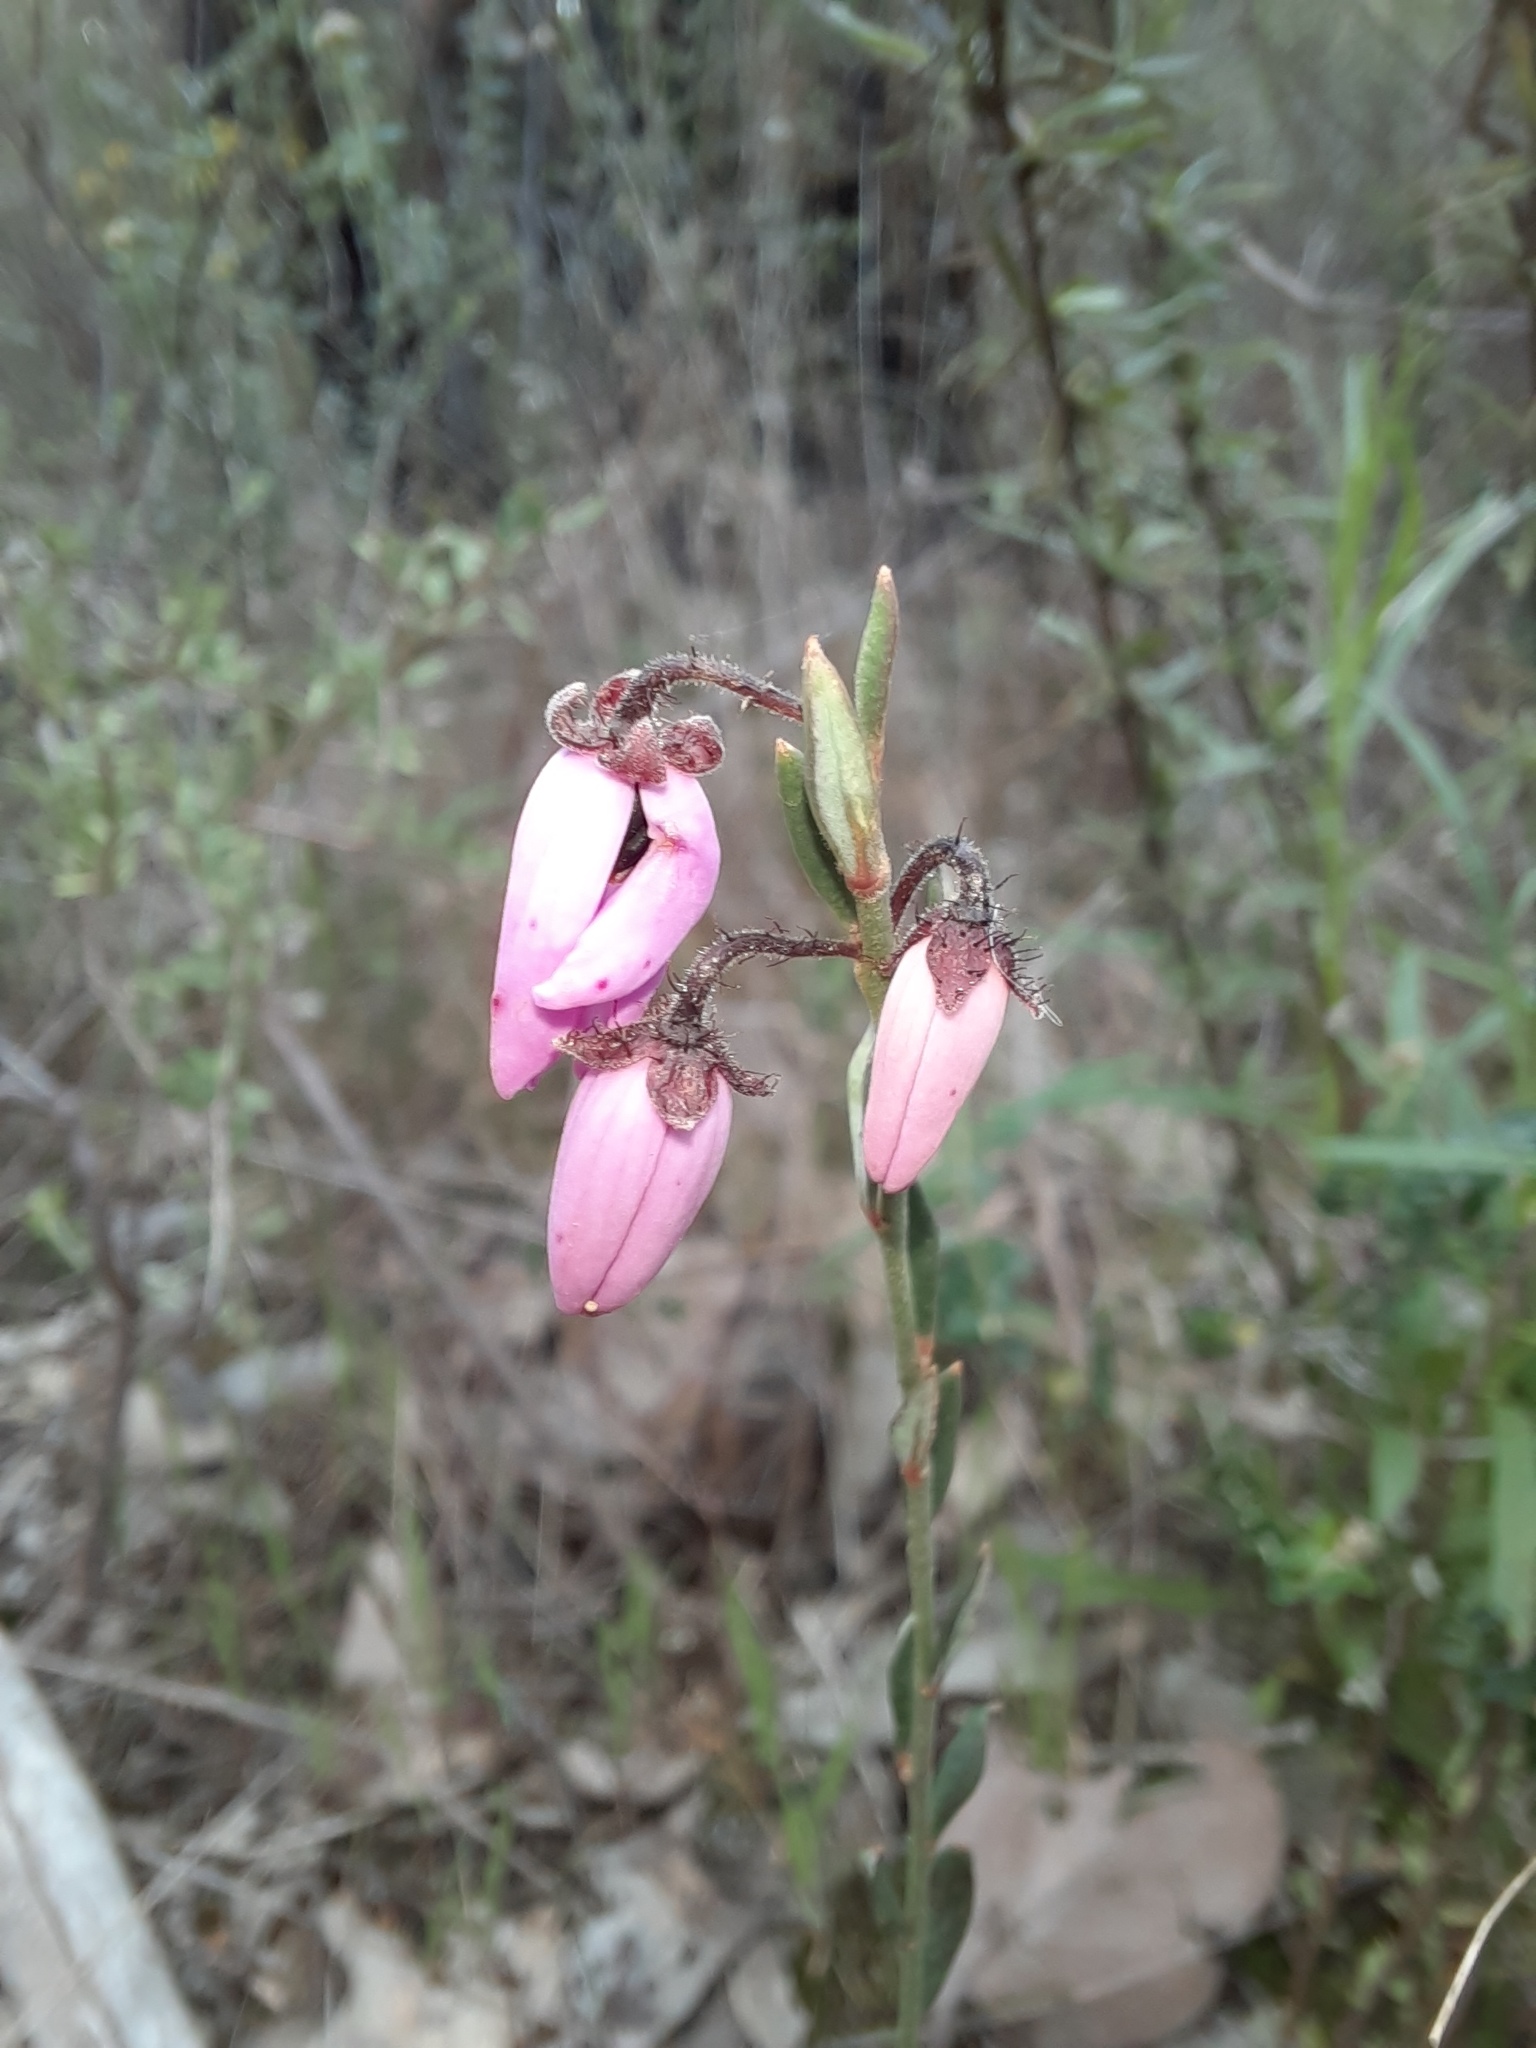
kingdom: Plantae
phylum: Tracheophyta
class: Magnoliopsida
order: Oxalidales
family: Elaeocarpaceae
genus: Tetratheca
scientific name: Tetratheca ciliata
